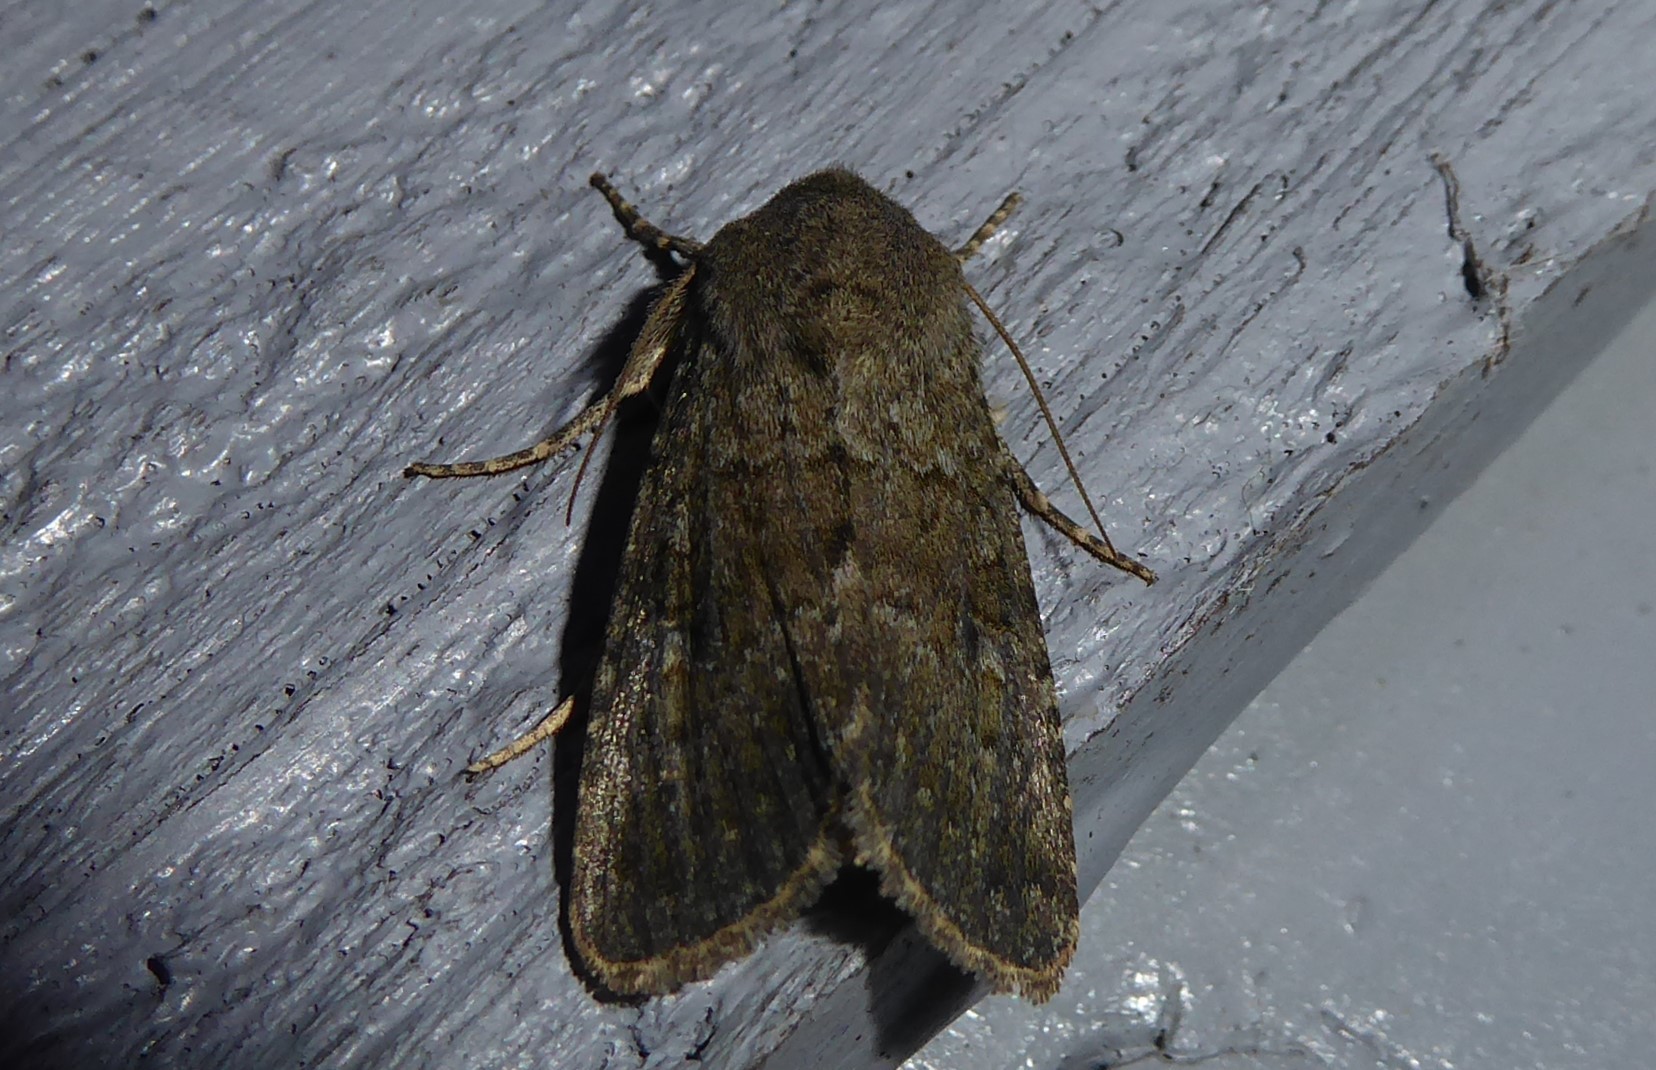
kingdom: Animalia
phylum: Arthropoda
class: Insecta
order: Lepidoptera
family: Noctuidae
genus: Ichneutica
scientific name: Ichneutica moderata
